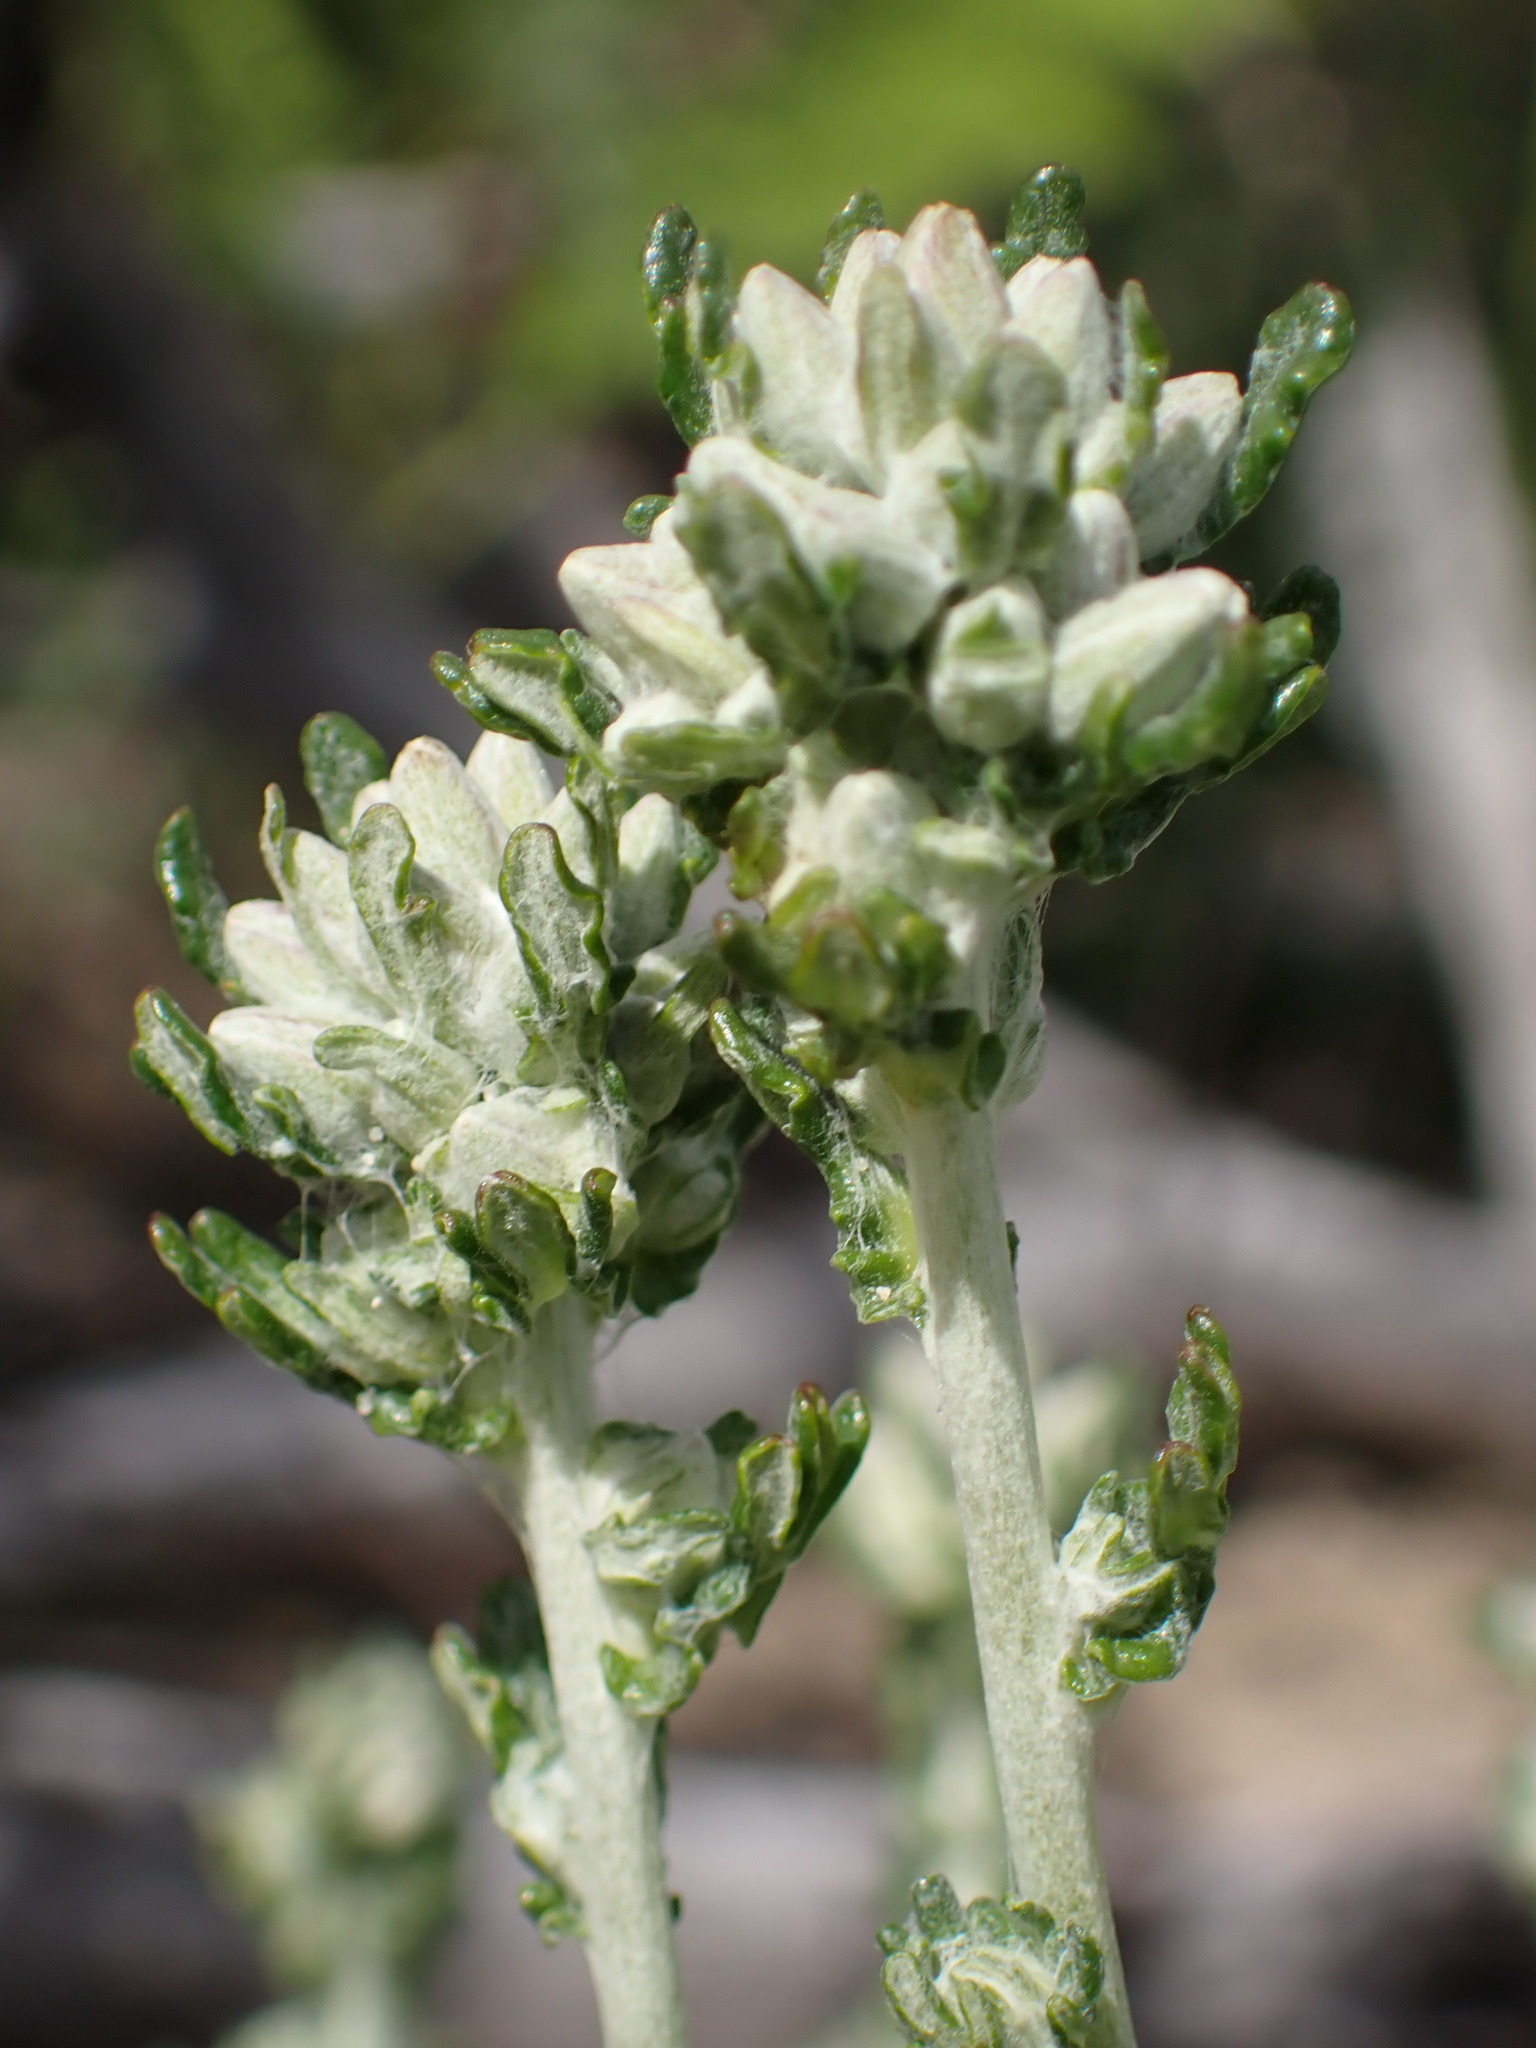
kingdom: Plantae
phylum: Tracheophyta
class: Magnoliopsida
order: Asterales
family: Asteraceae
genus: Eriophyllum
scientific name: Eriophyllum confertiflorum
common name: Golden-yarrow
